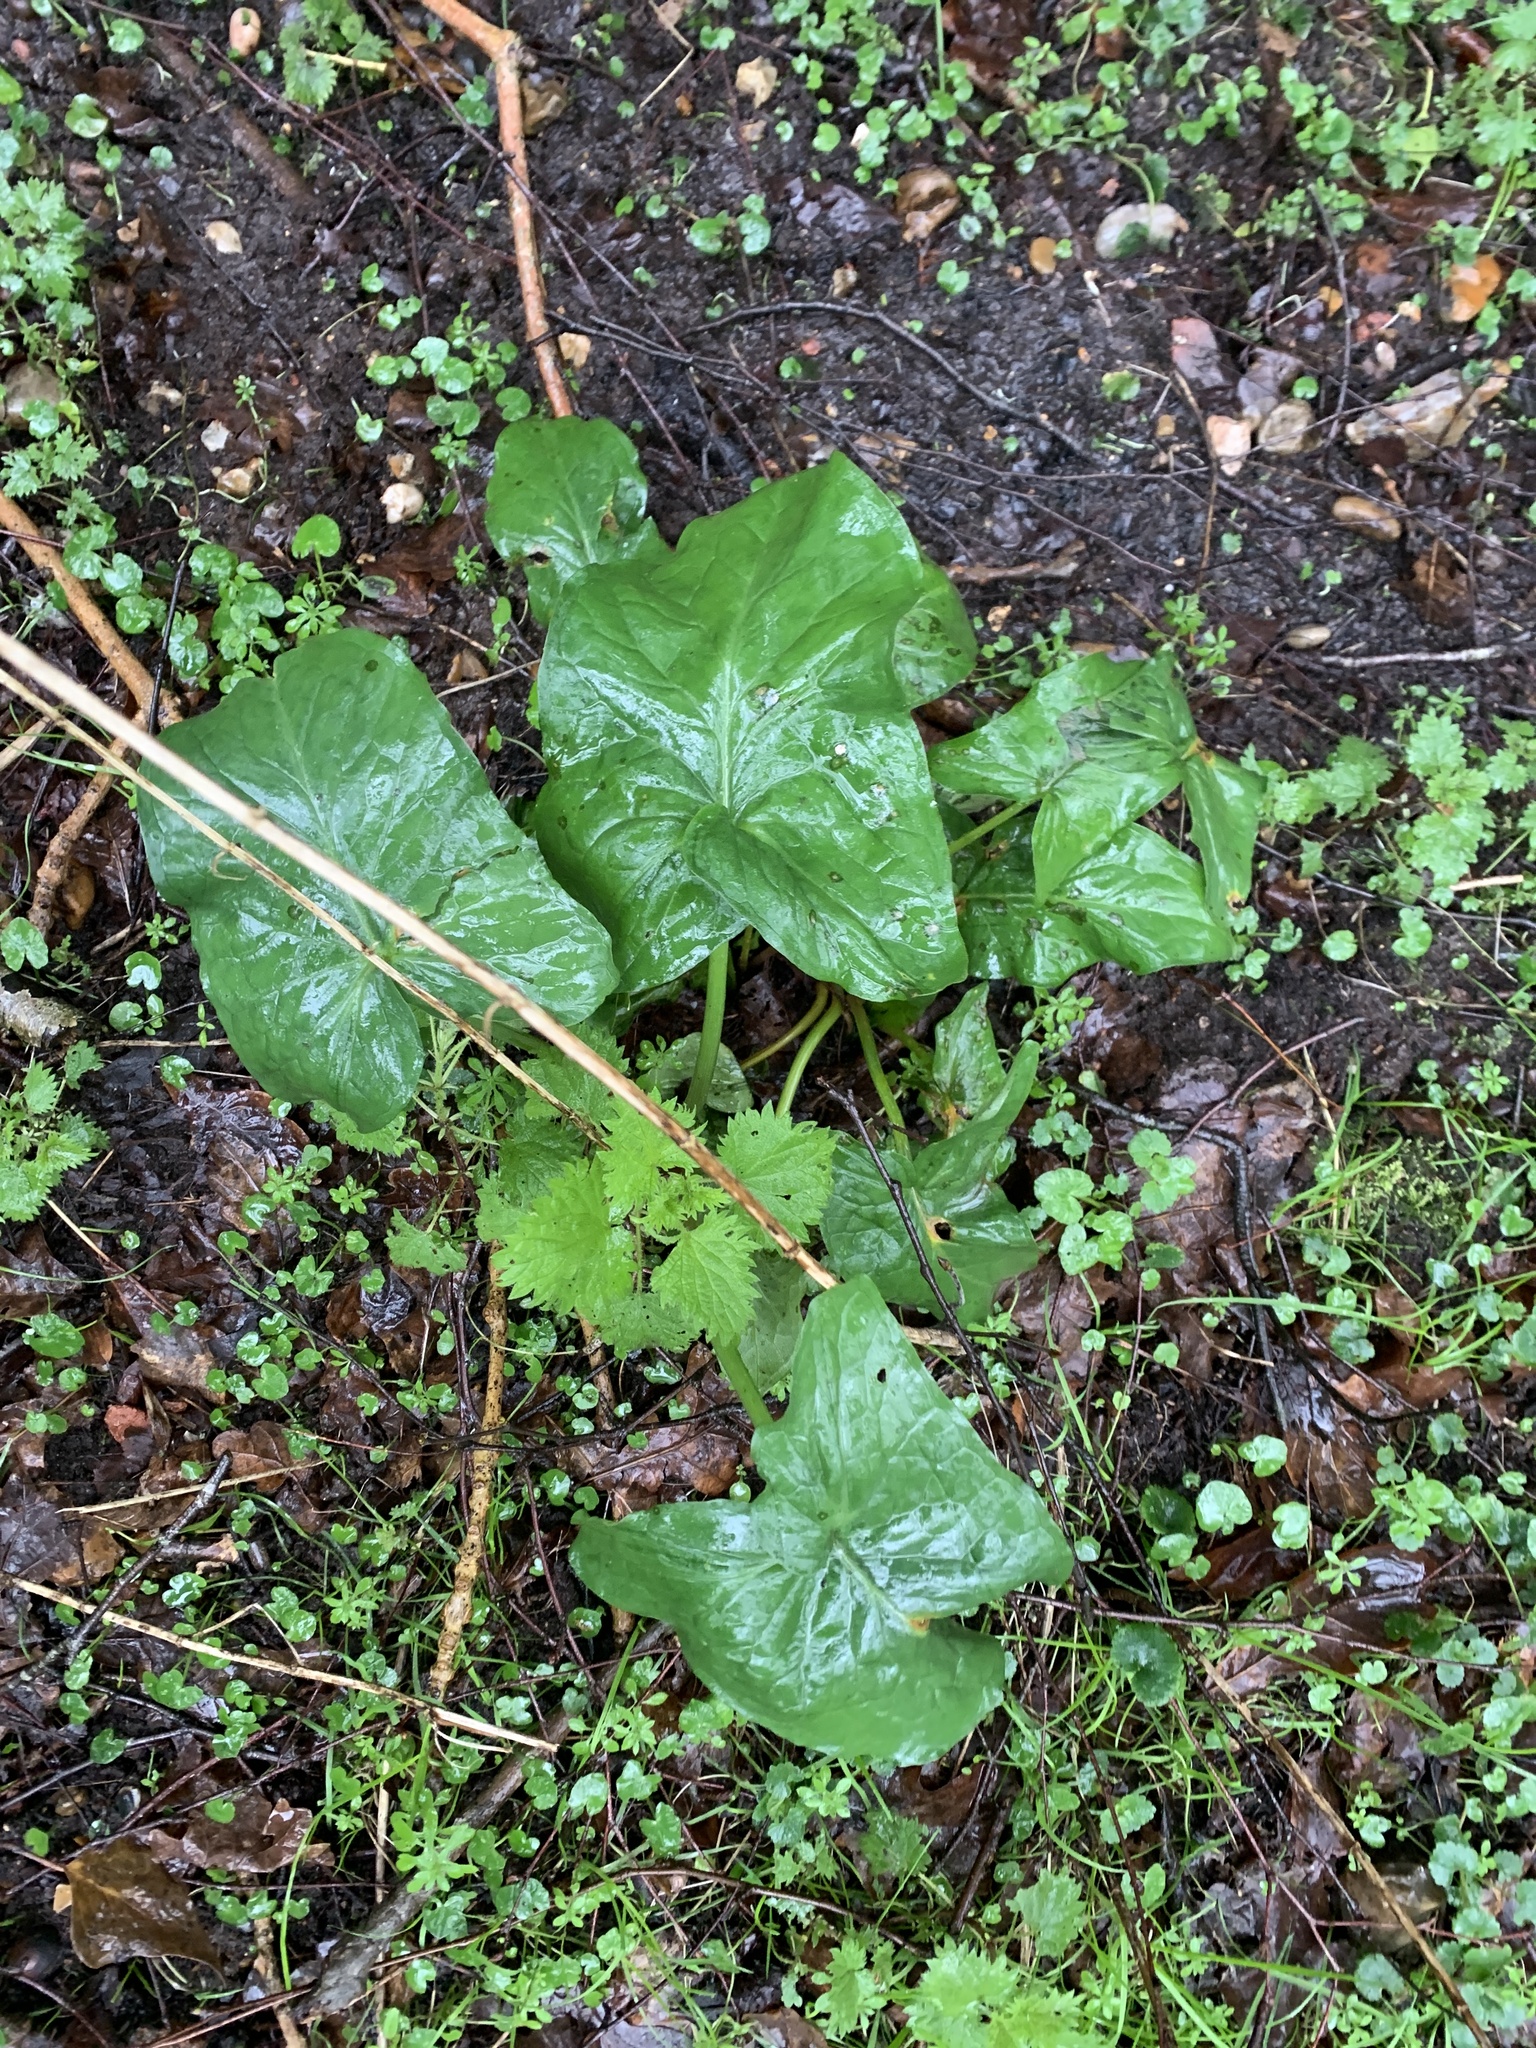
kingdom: Plantae
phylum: Tracheophyta
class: Liliopsida
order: Alismatales
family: Araceae
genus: Arum
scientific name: Arum maculatum
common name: Lords-and-ladies
